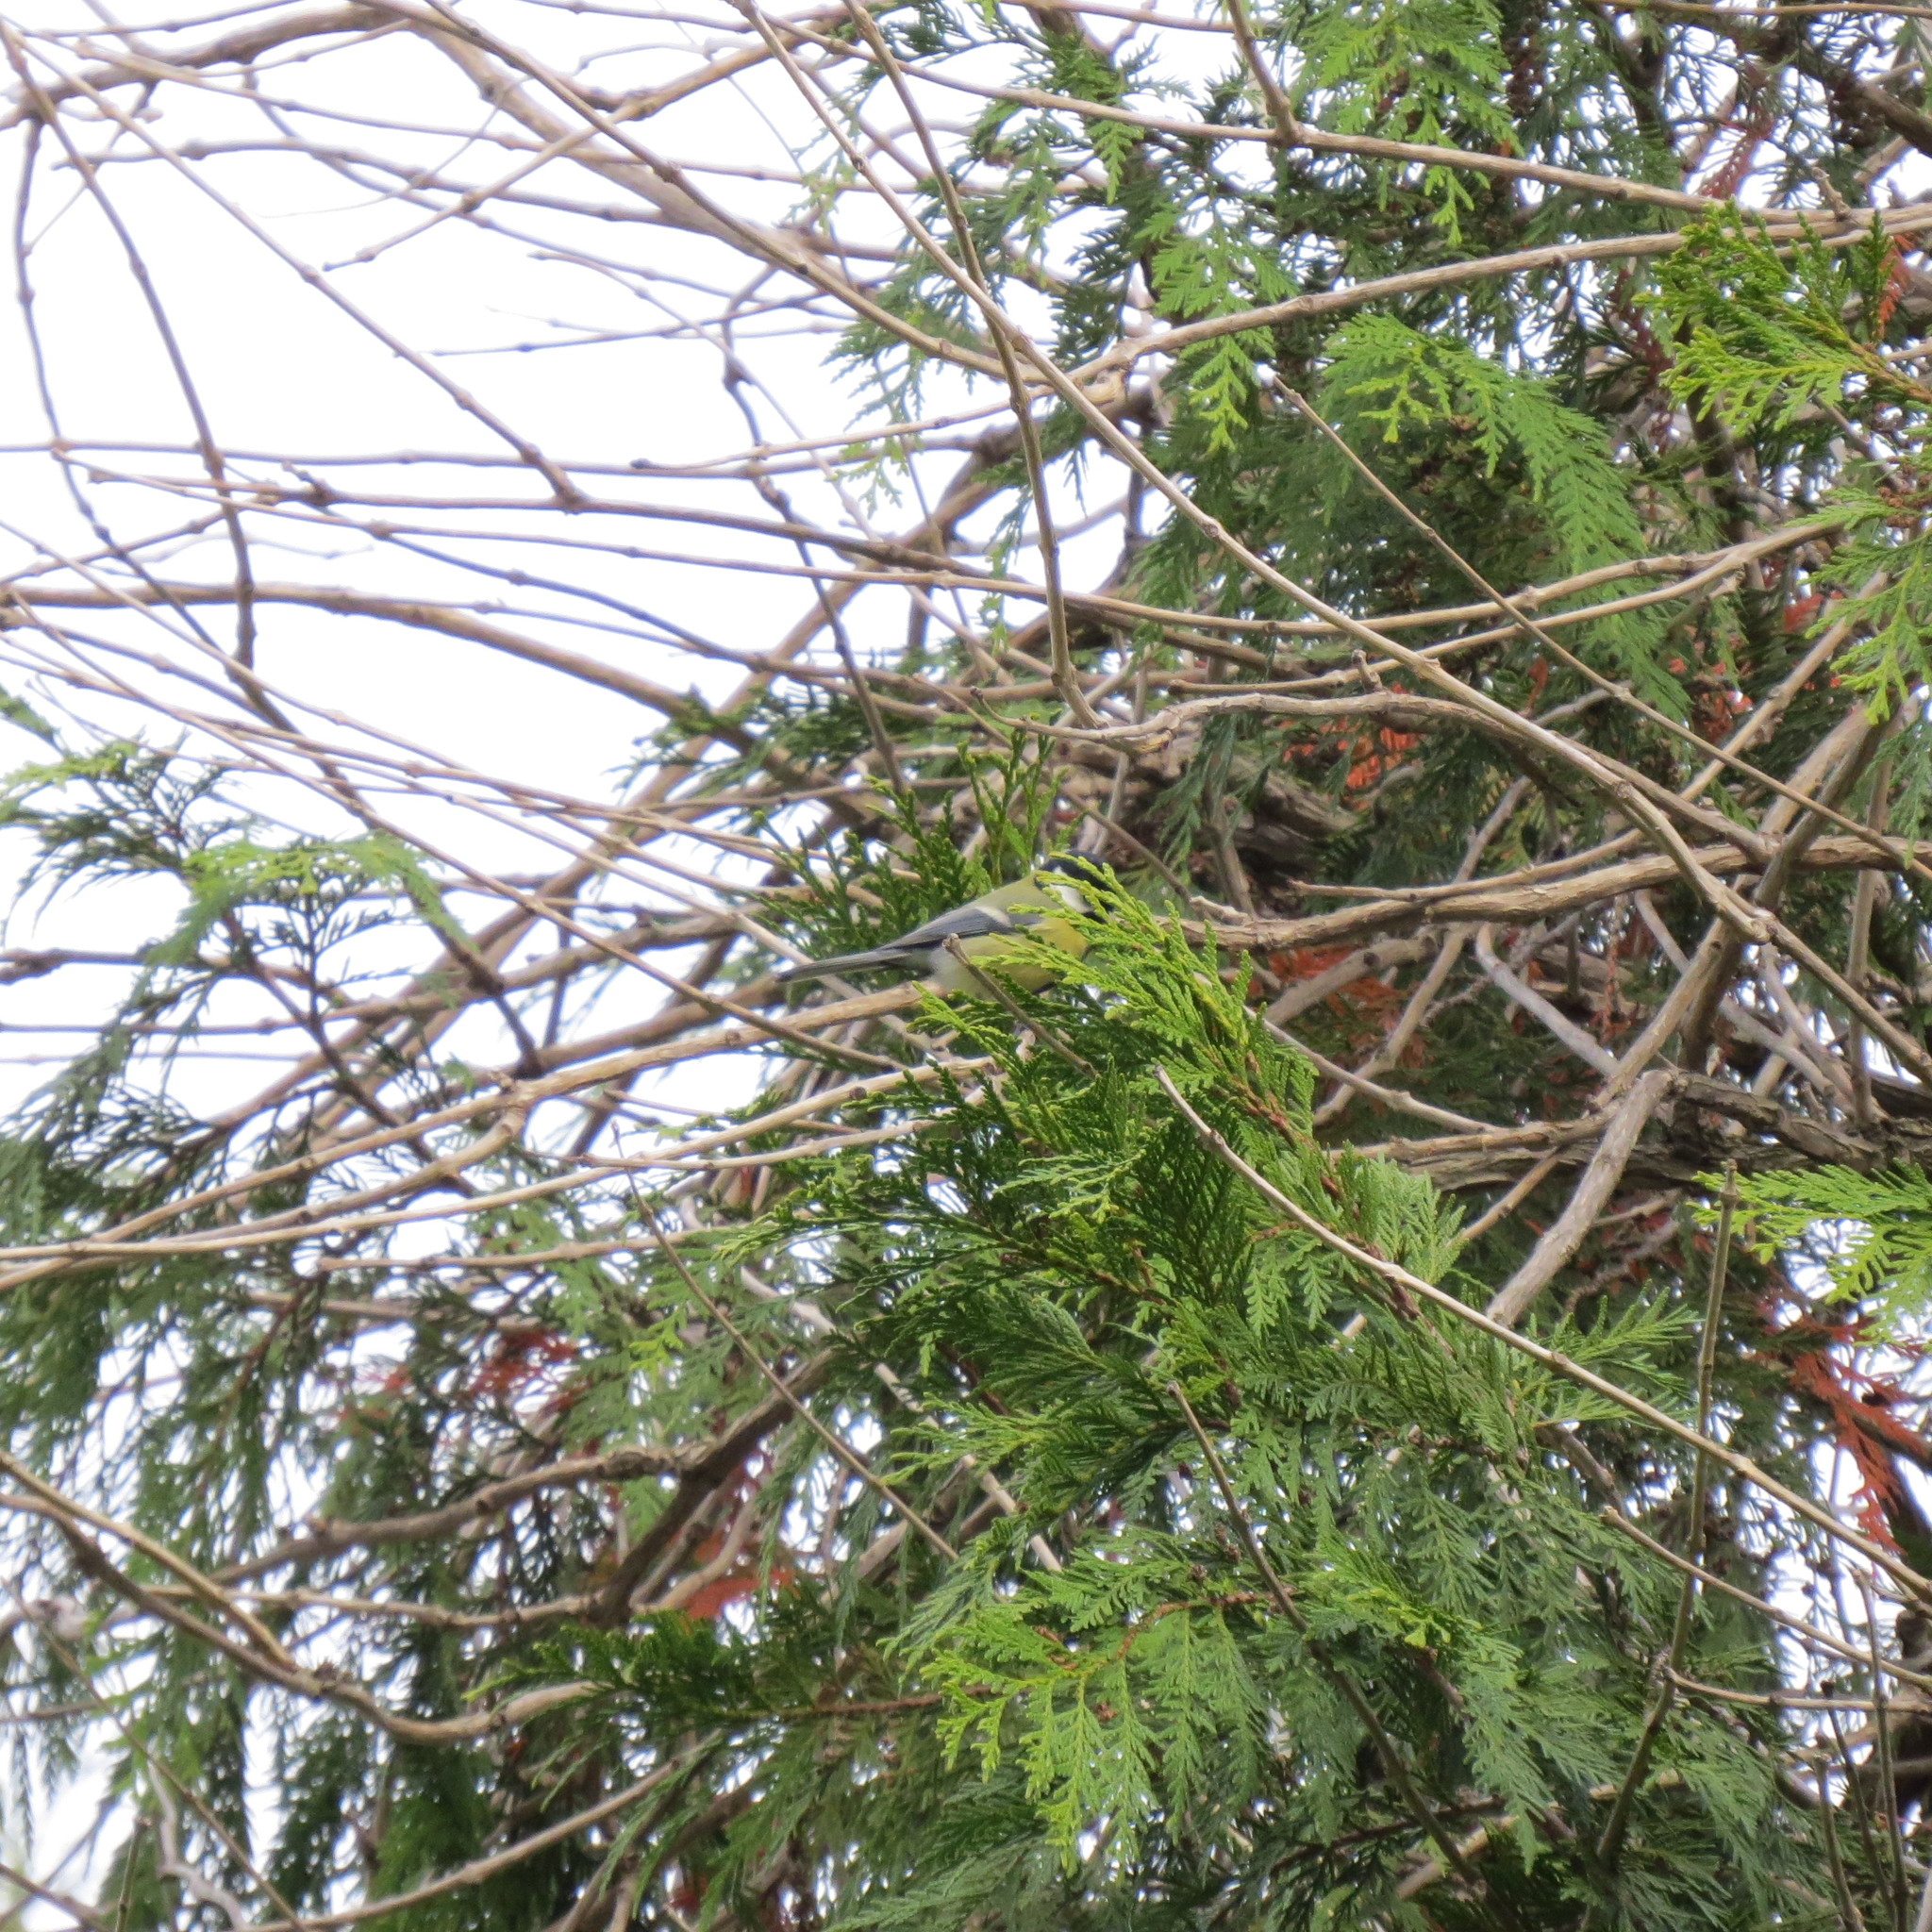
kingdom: Animalia
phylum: Chordata
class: Aves
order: Passeriformes
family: Paridae
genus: Parus
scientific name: Parus major
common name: Great tit
